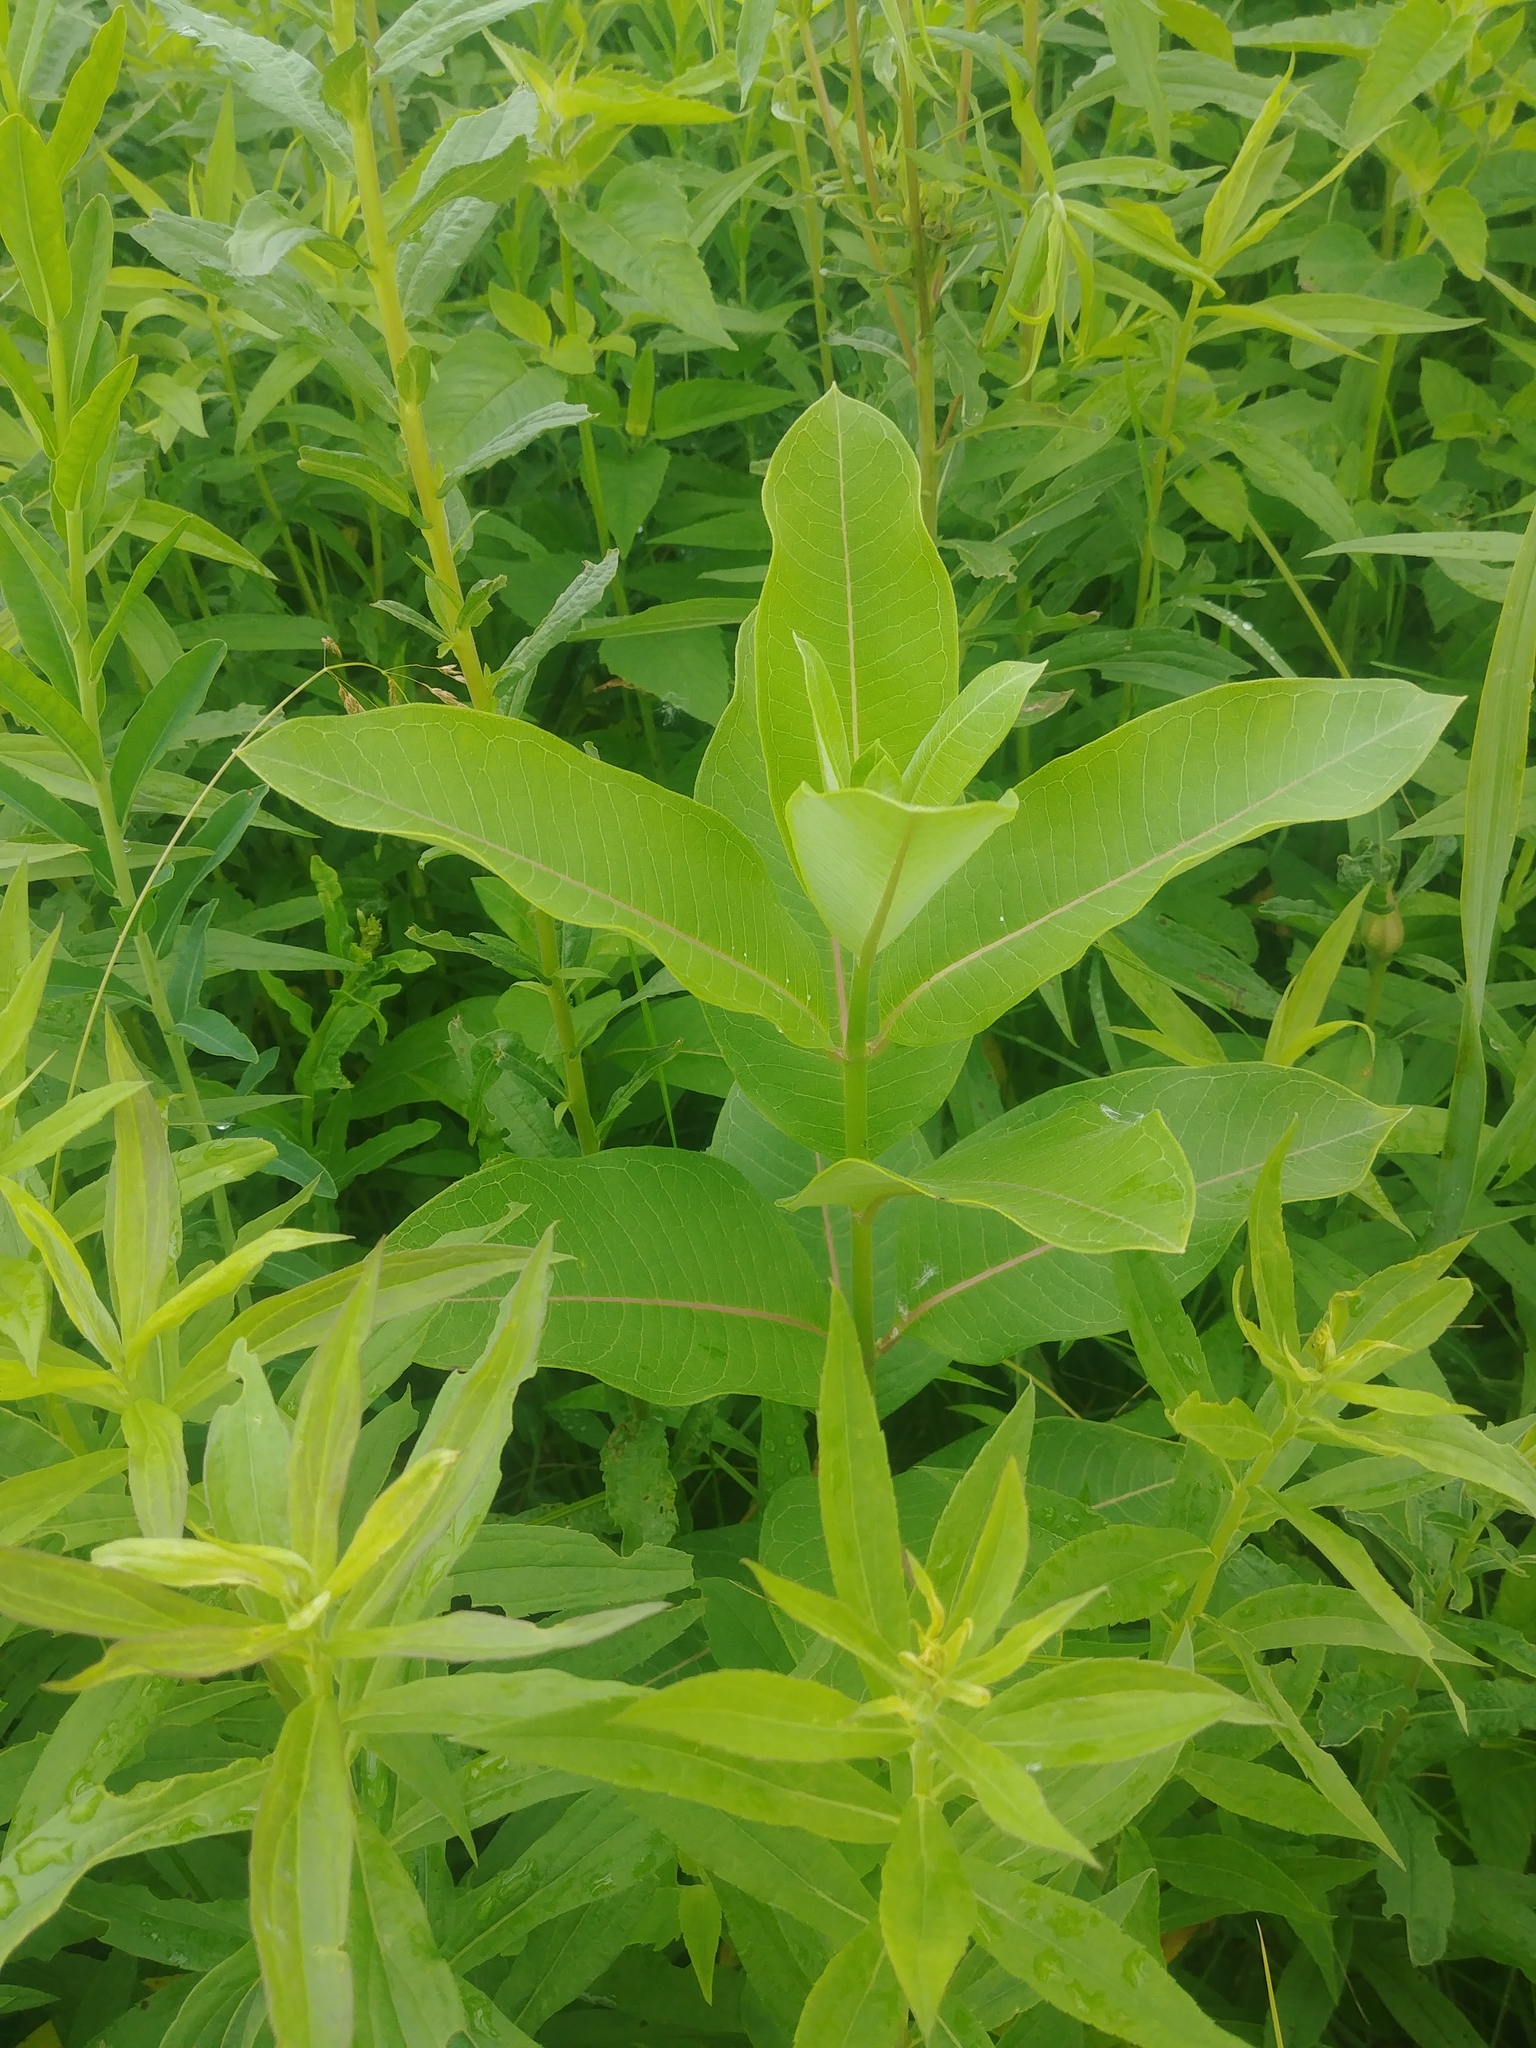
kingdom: Plantae
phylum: Tracheophyta
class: Magnoliopsida
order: Gentianales
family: Apocynaceae
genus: Asclepias
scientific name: Asclepias syriaca
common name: Common milkweed
